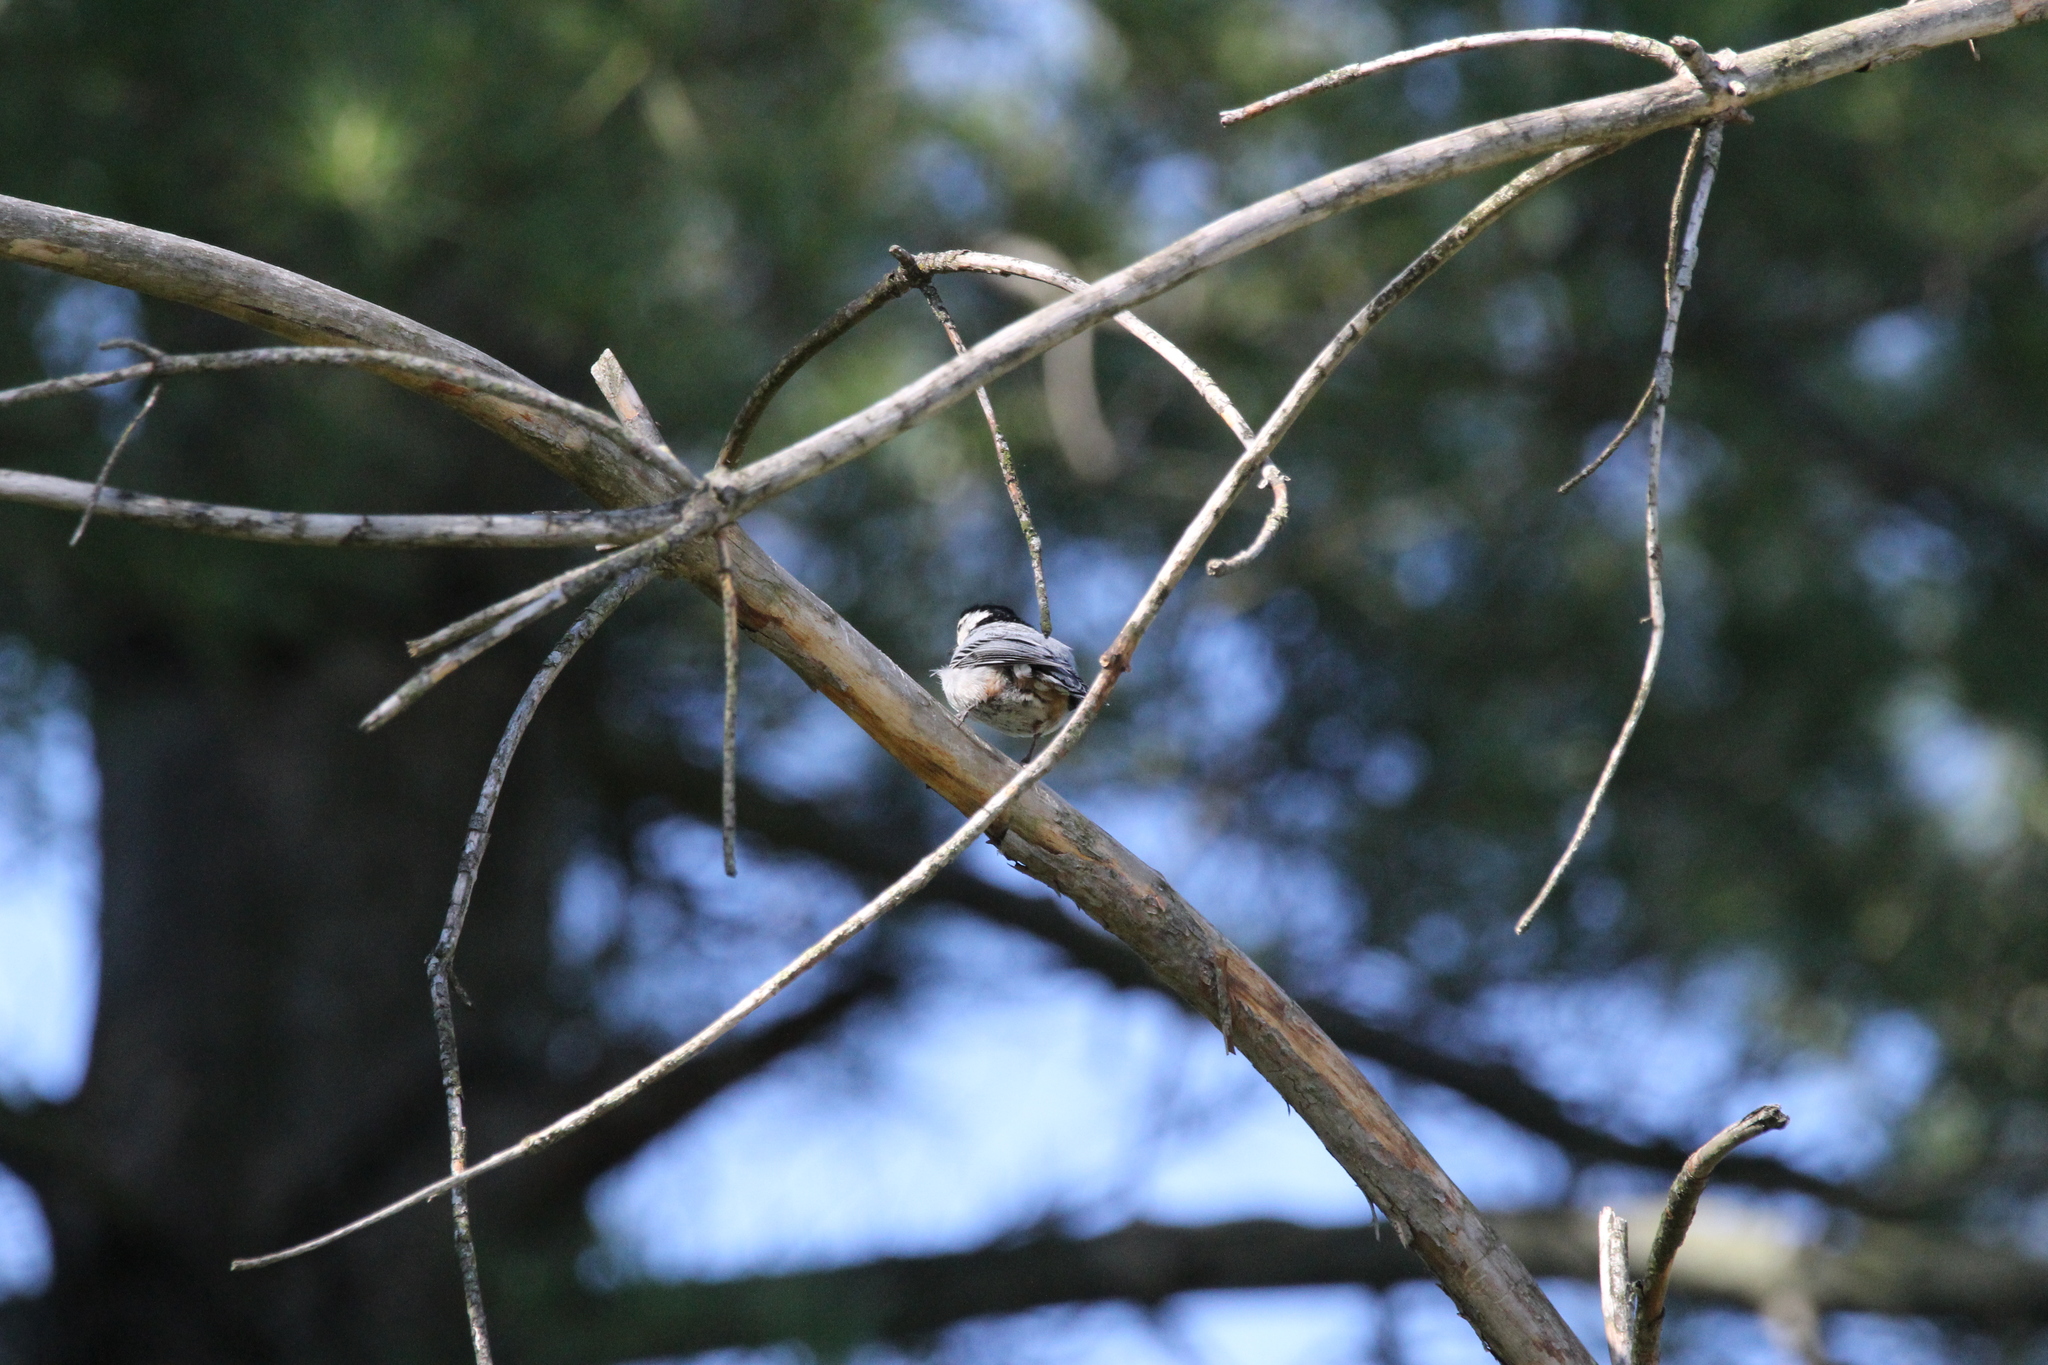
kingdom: Animalia
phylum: Chordata
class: Aves
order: Passeriformes
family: Sittidae
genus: Sitta
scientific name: Sitta carolinensis
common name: White-breasted nuthatch
